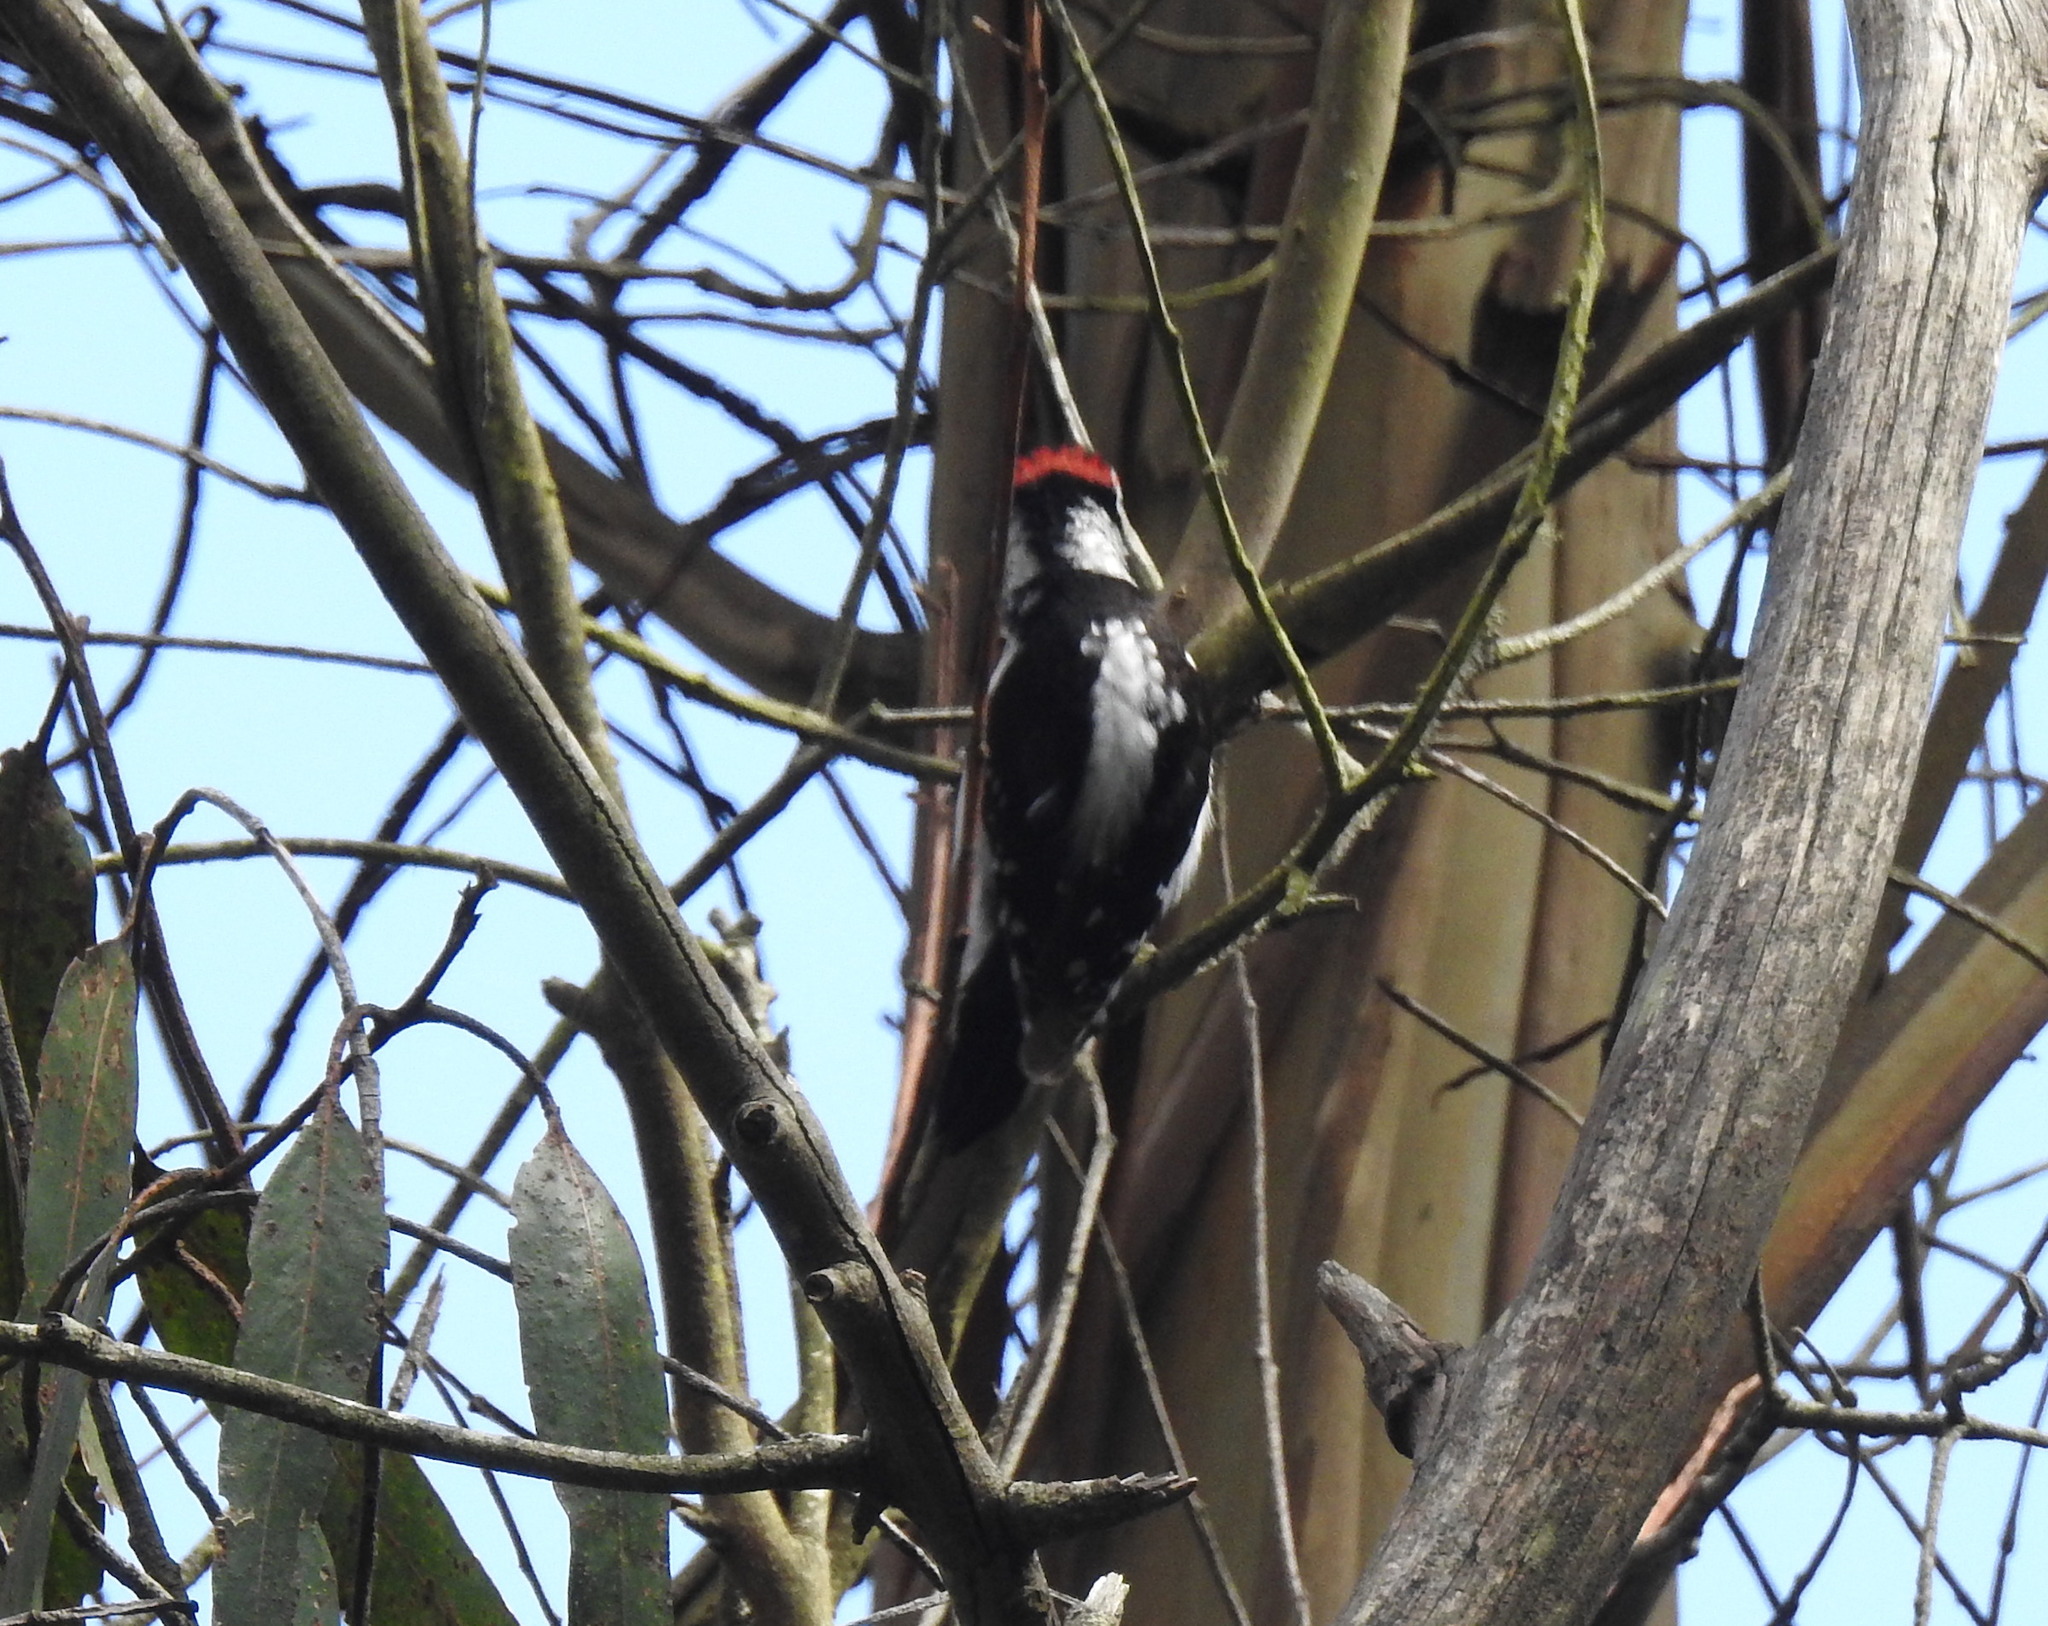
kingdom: Animalia
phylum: Chordata
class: Aves
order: Piciformes
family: Picidae
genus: Dryobates
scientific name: Dryobates pubescens
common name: Downy woodpecker
